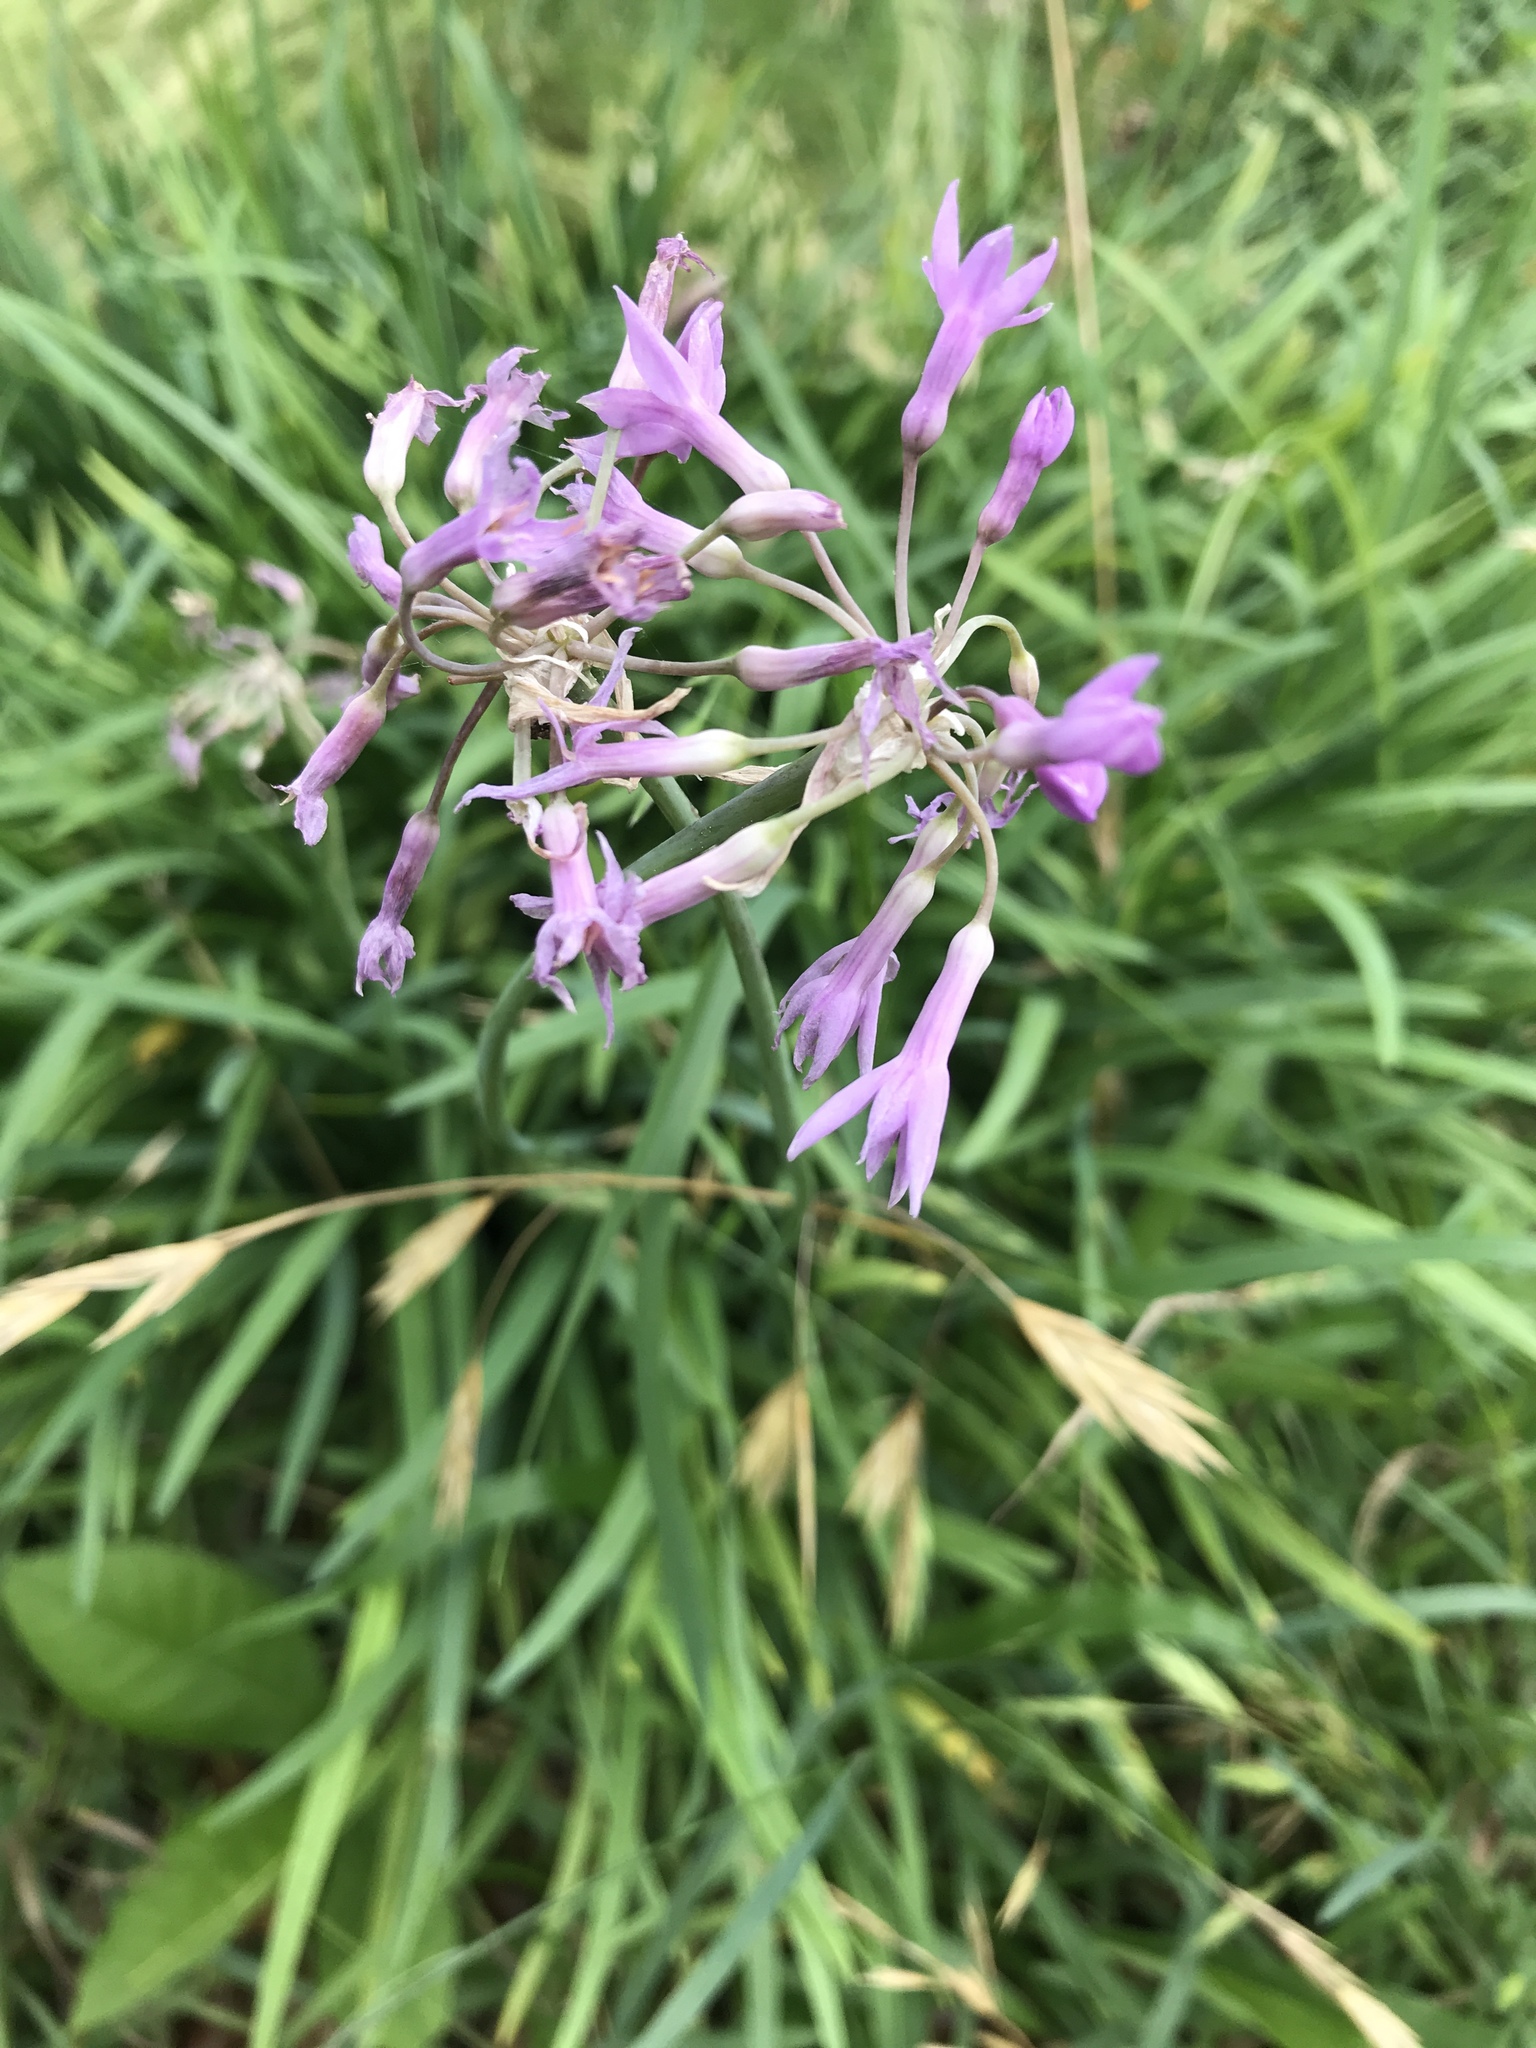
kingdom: Plantae
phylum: Tracheophyta
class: Liliopsida
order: Asparagales
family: Amaryllidaceae
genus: Tulbaghia
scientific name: Tulbaghia violacea
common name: Society garlic
